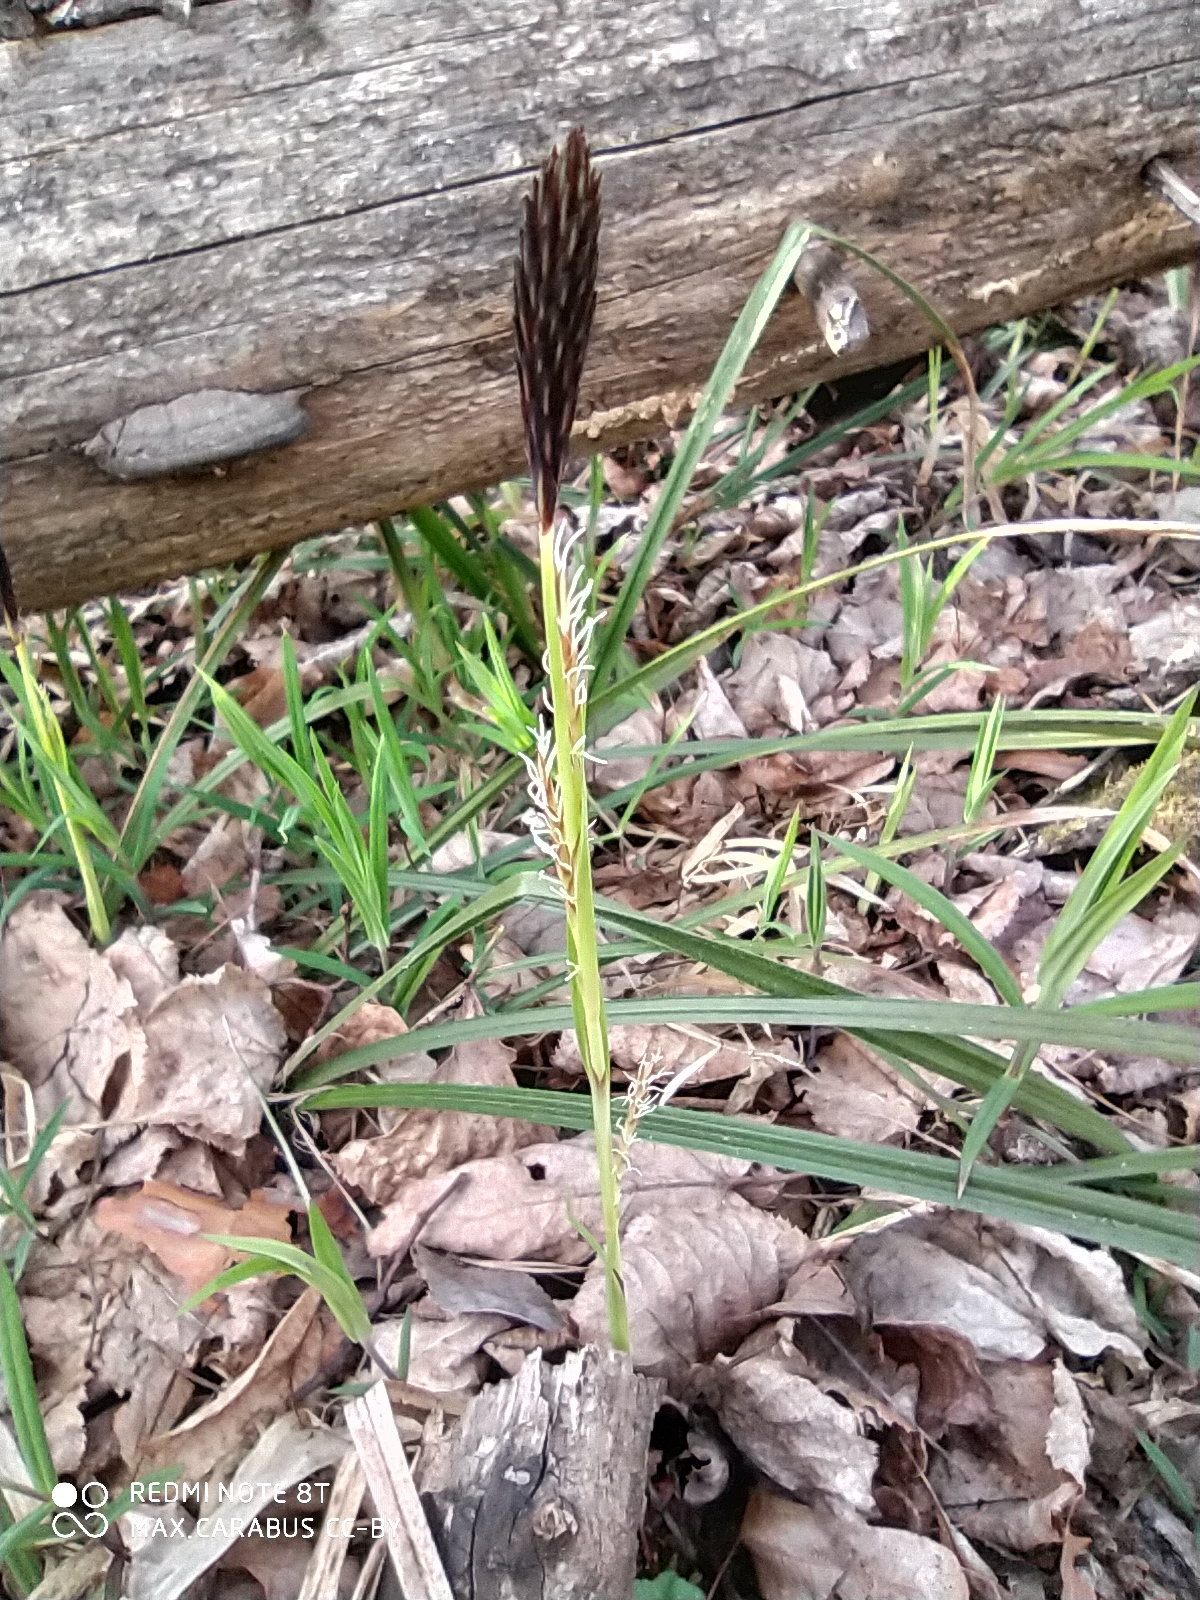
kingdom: Plantae
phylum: Tracheophyta
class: Liliopsida
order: Poales
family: Cyperaceae
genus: Carex
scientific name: Carex pilosa
